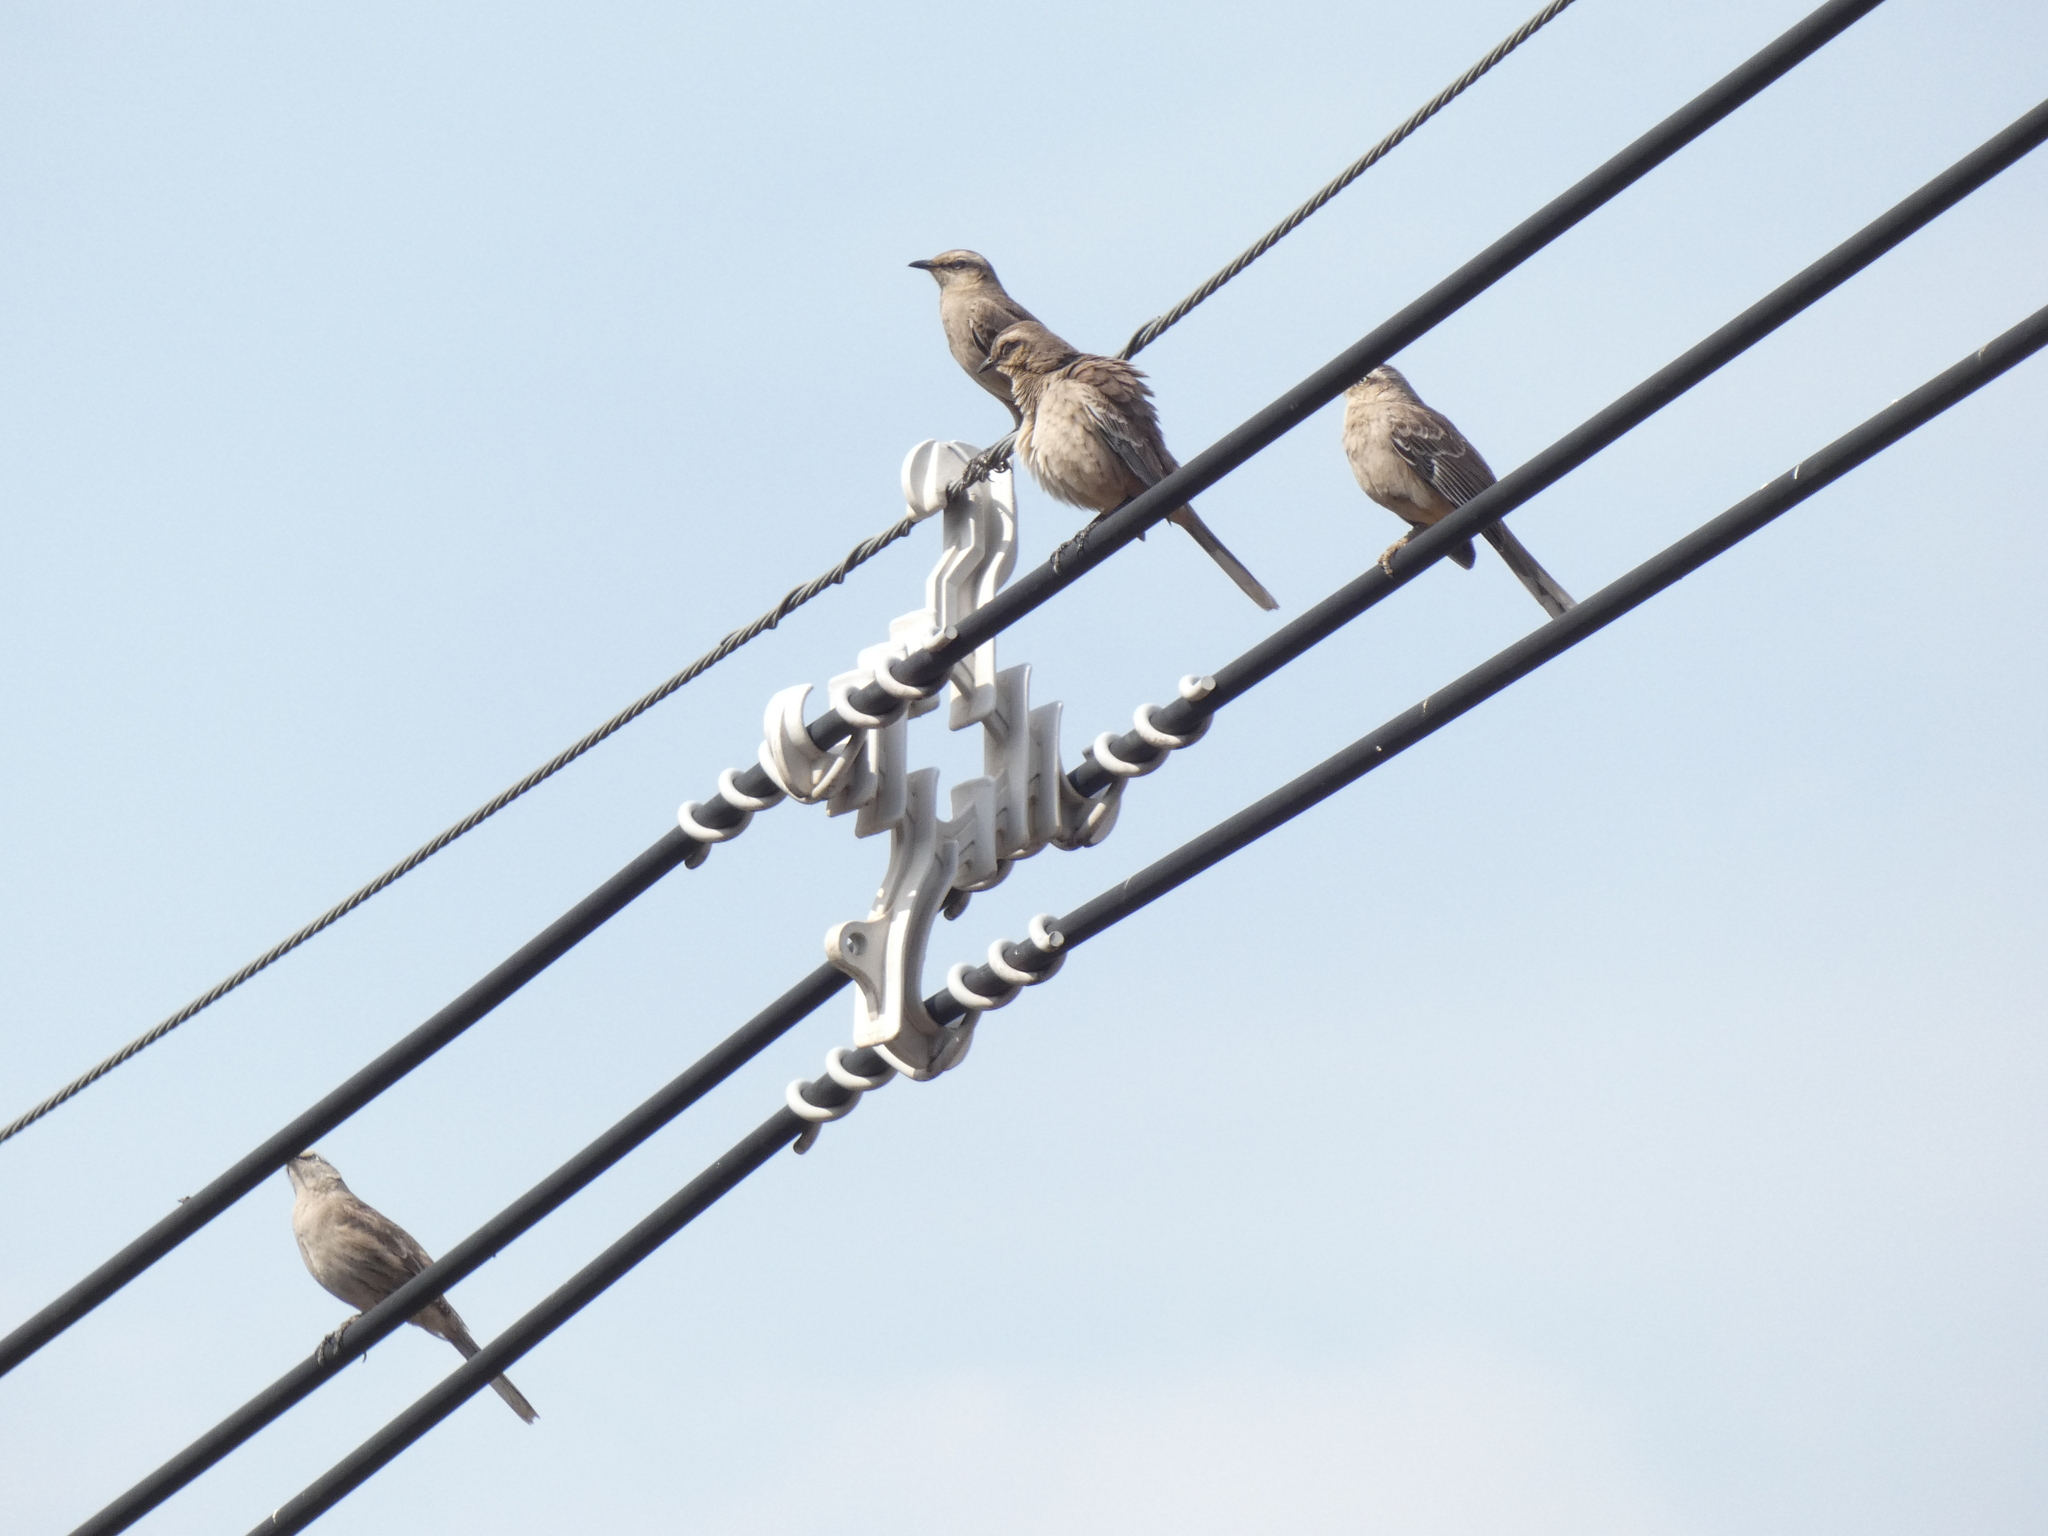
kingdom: Animalia
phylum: Chordata
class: Aves
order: Passeriformes
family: Mimidae
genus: Mimus
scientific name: Mimus saturninus
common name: Chalk-browed mockingbird
